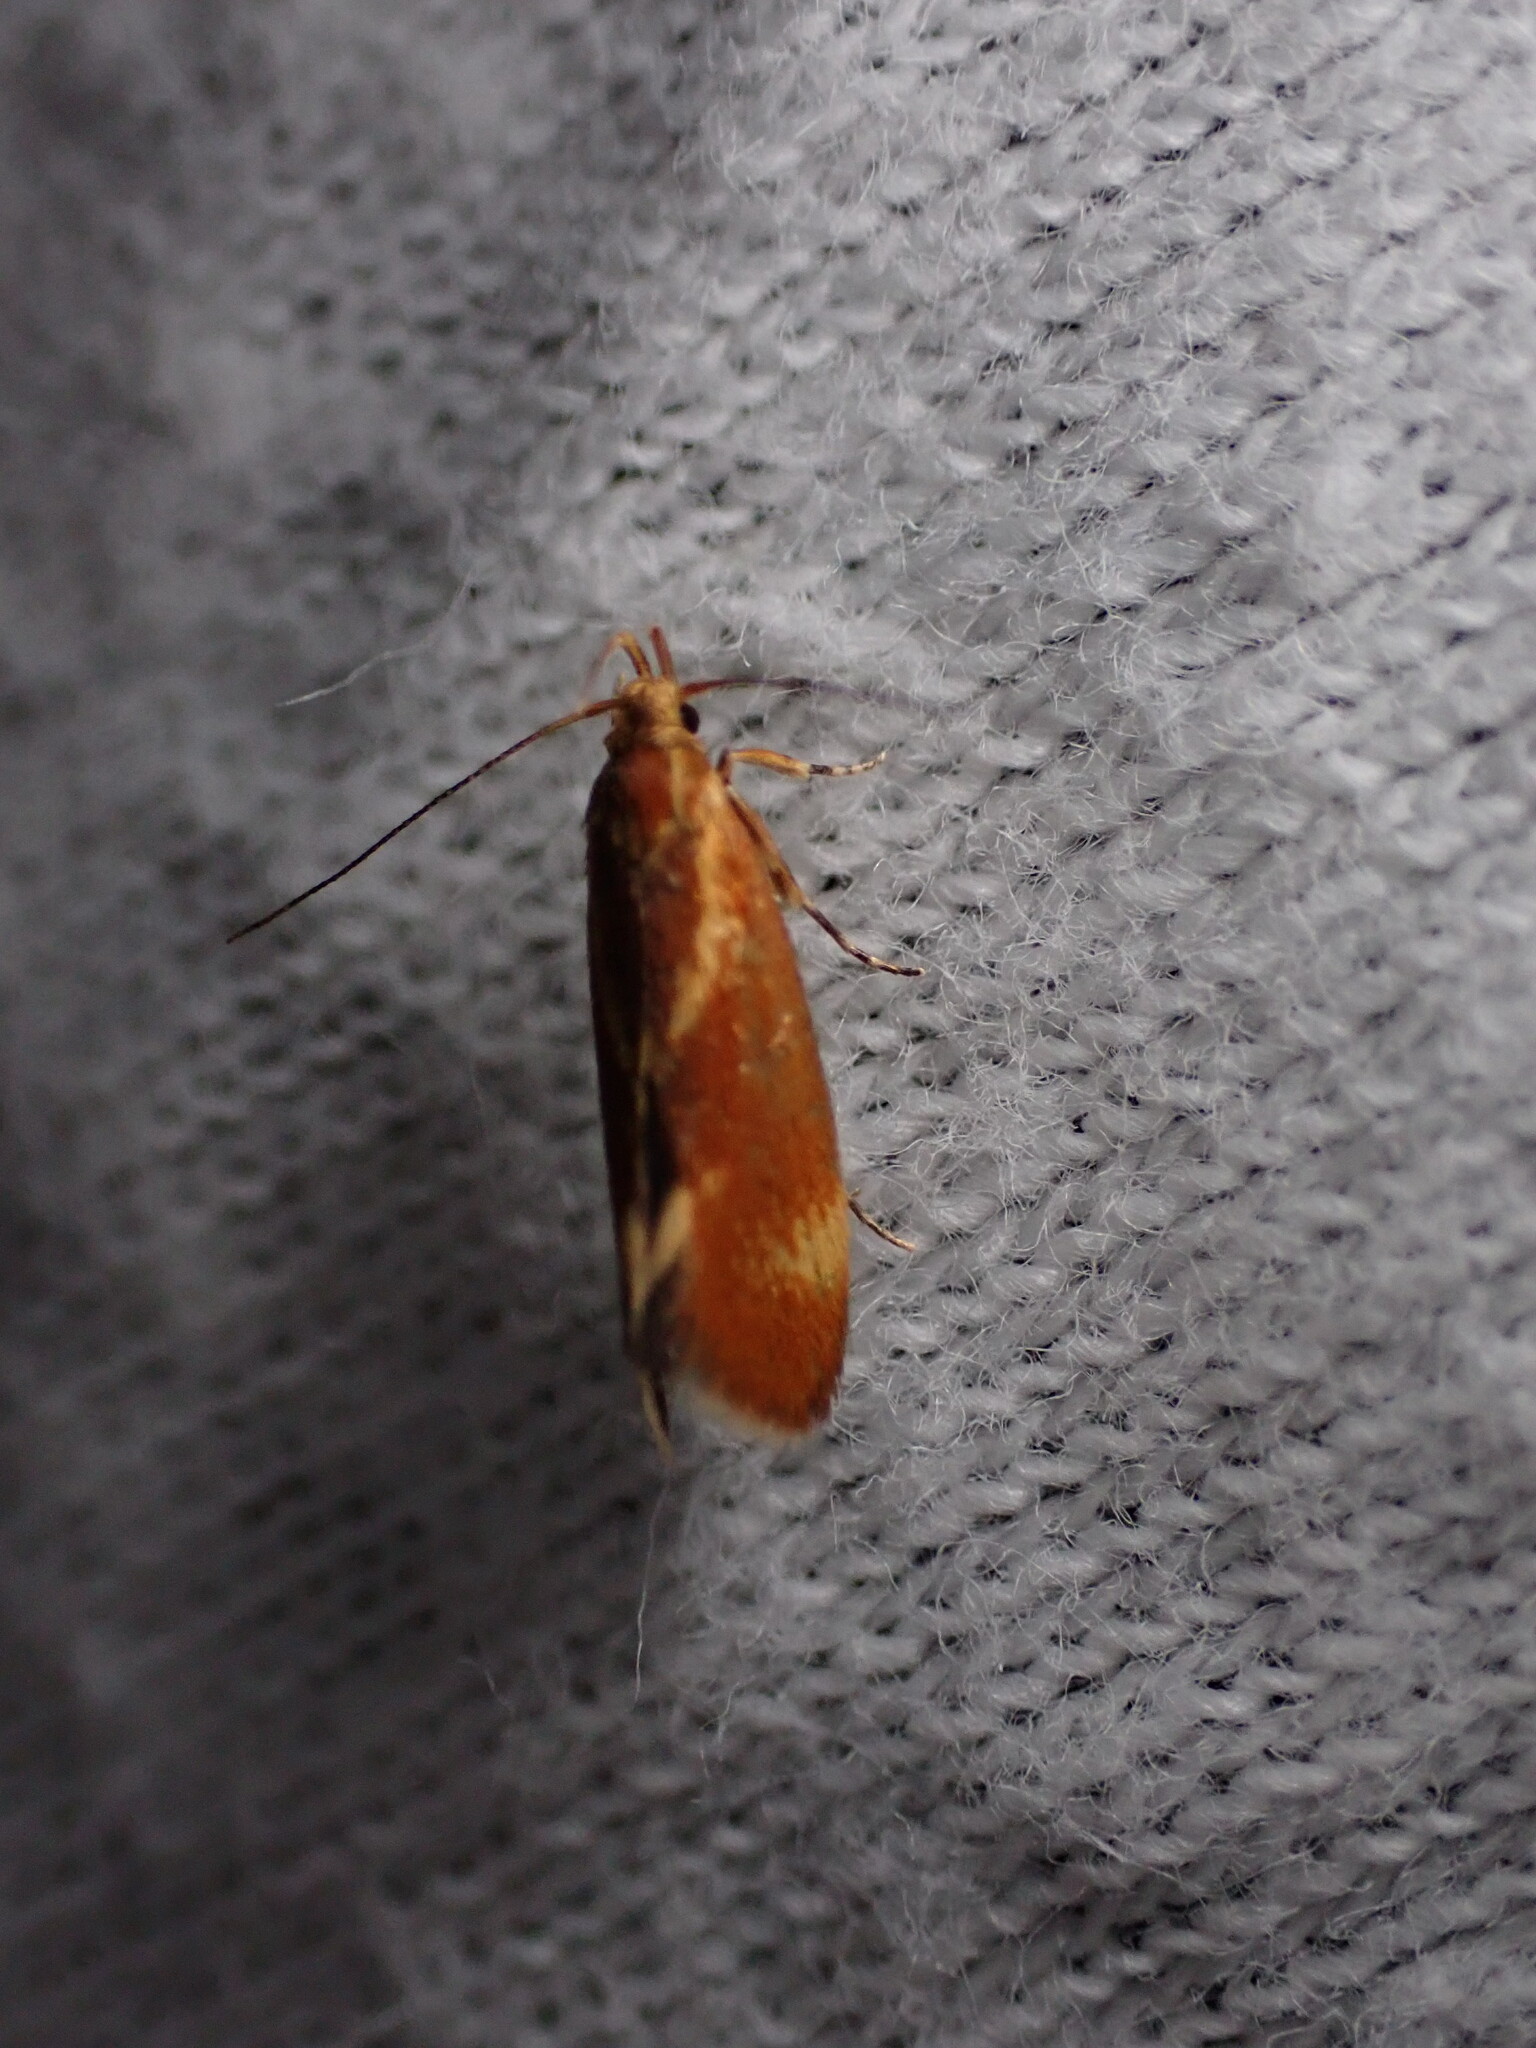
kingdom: Animalia
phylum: Arthropoda
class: Insecta
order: Lepidoptera
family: Oecophoridae
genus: Borkhausenia
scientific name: Borkhausenia italica
